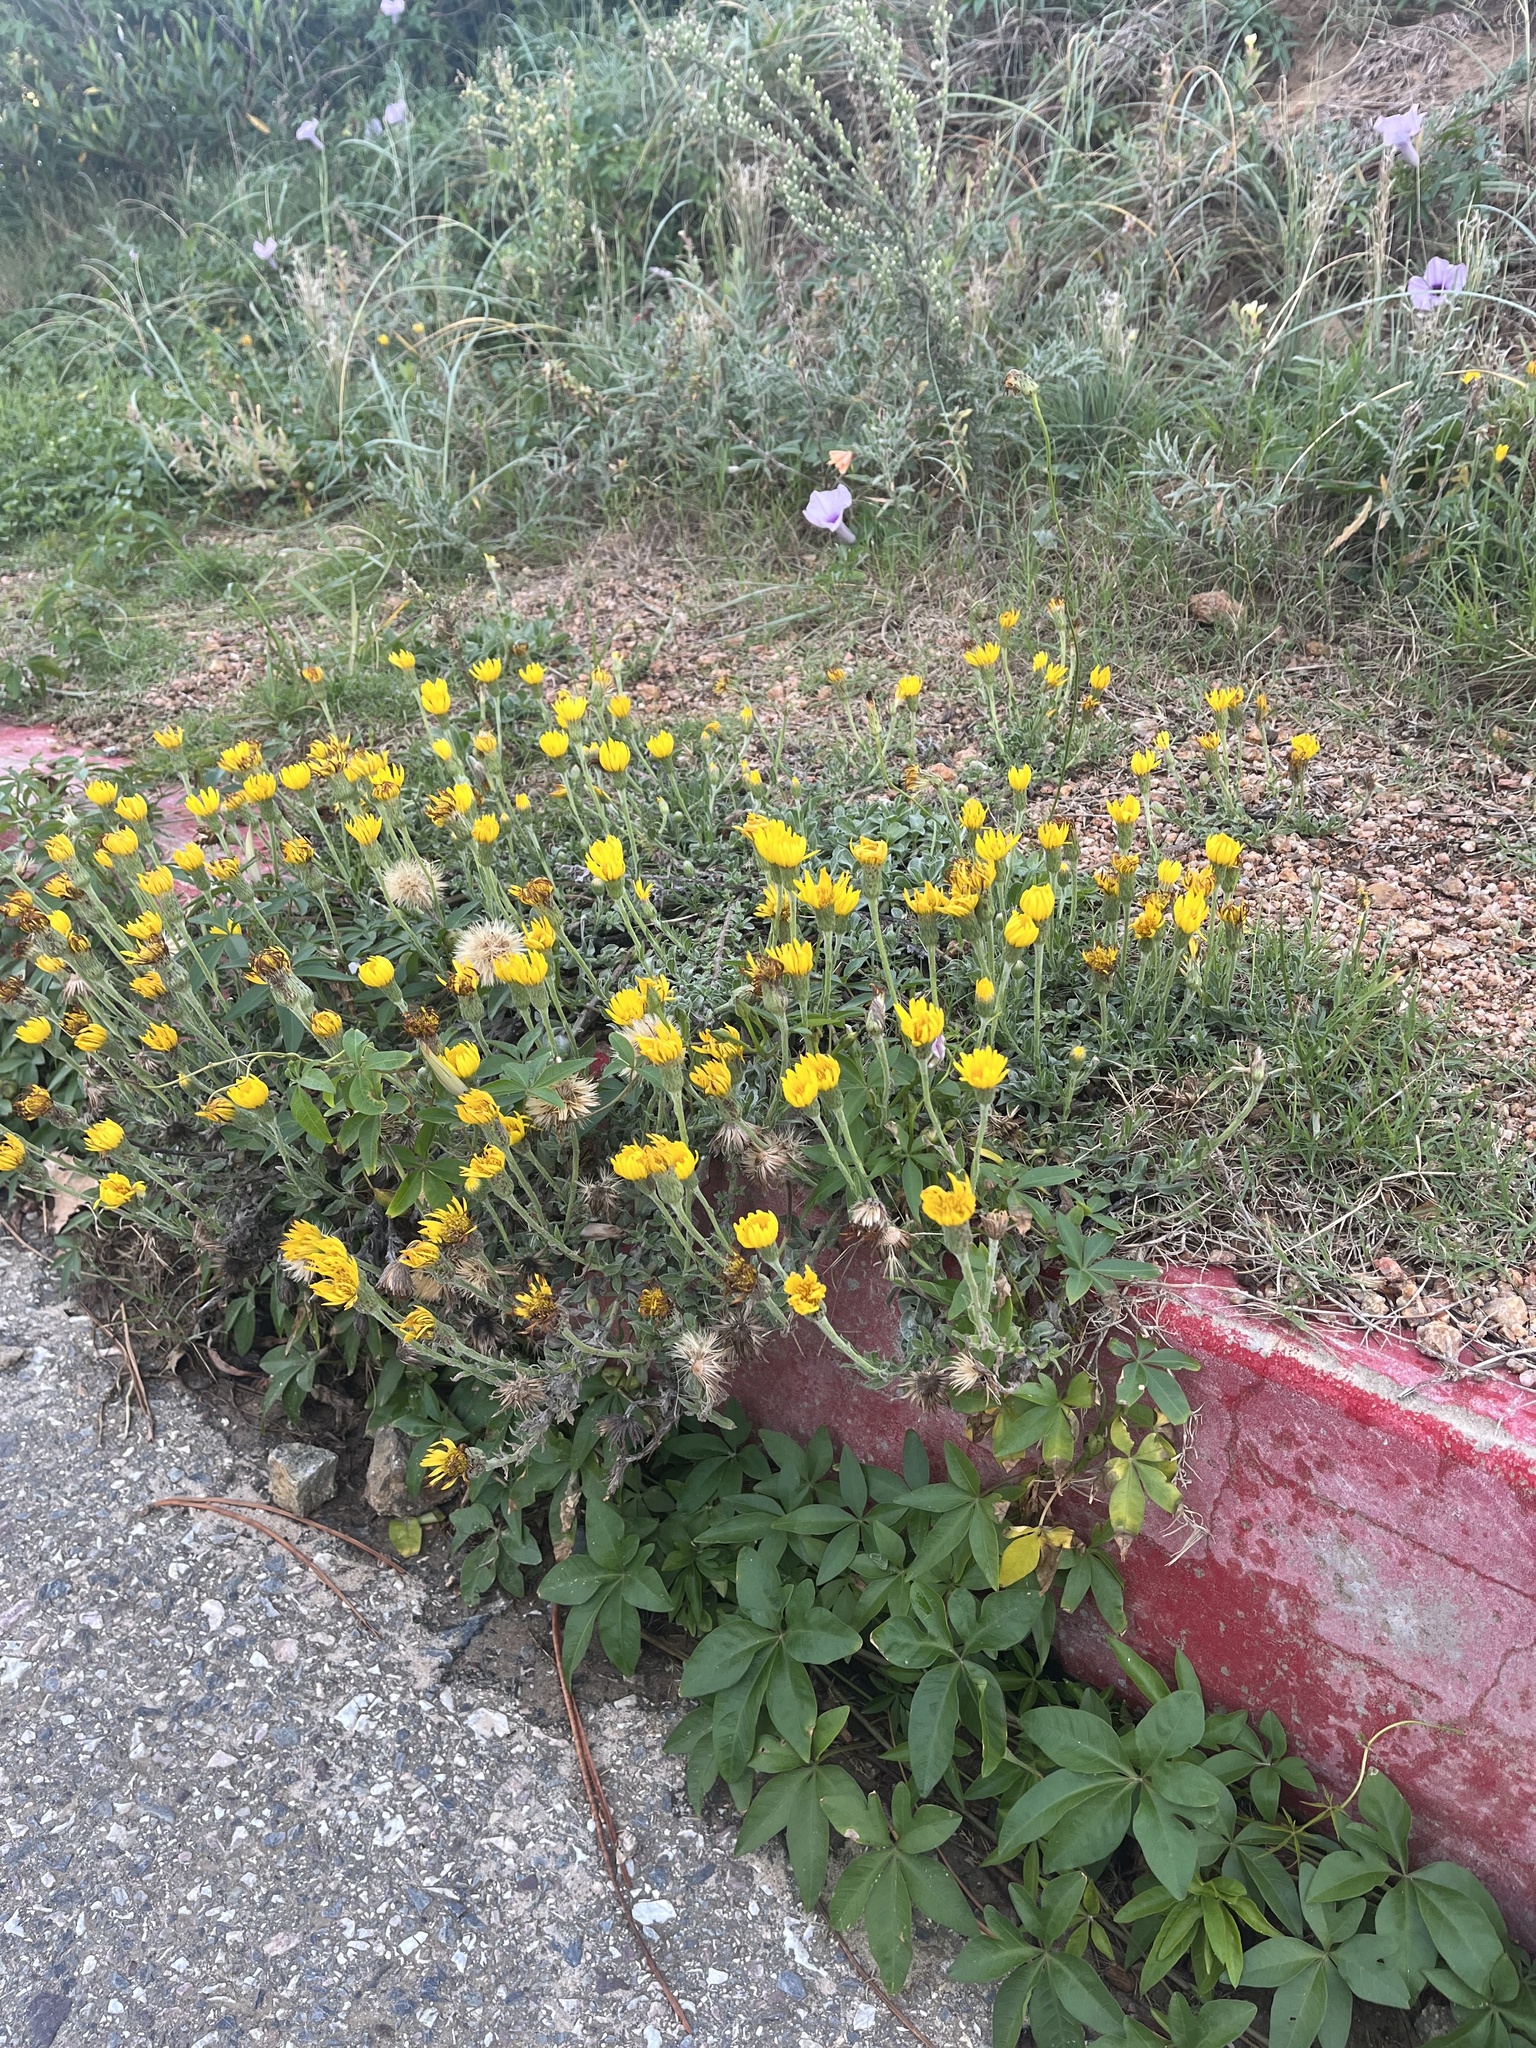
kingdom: Plantae
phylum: Tracheophyta
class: Magnoliopsida
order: Asterales
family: Asteraceae
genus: Noticastrum
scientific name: Noticastrum acuminatum
